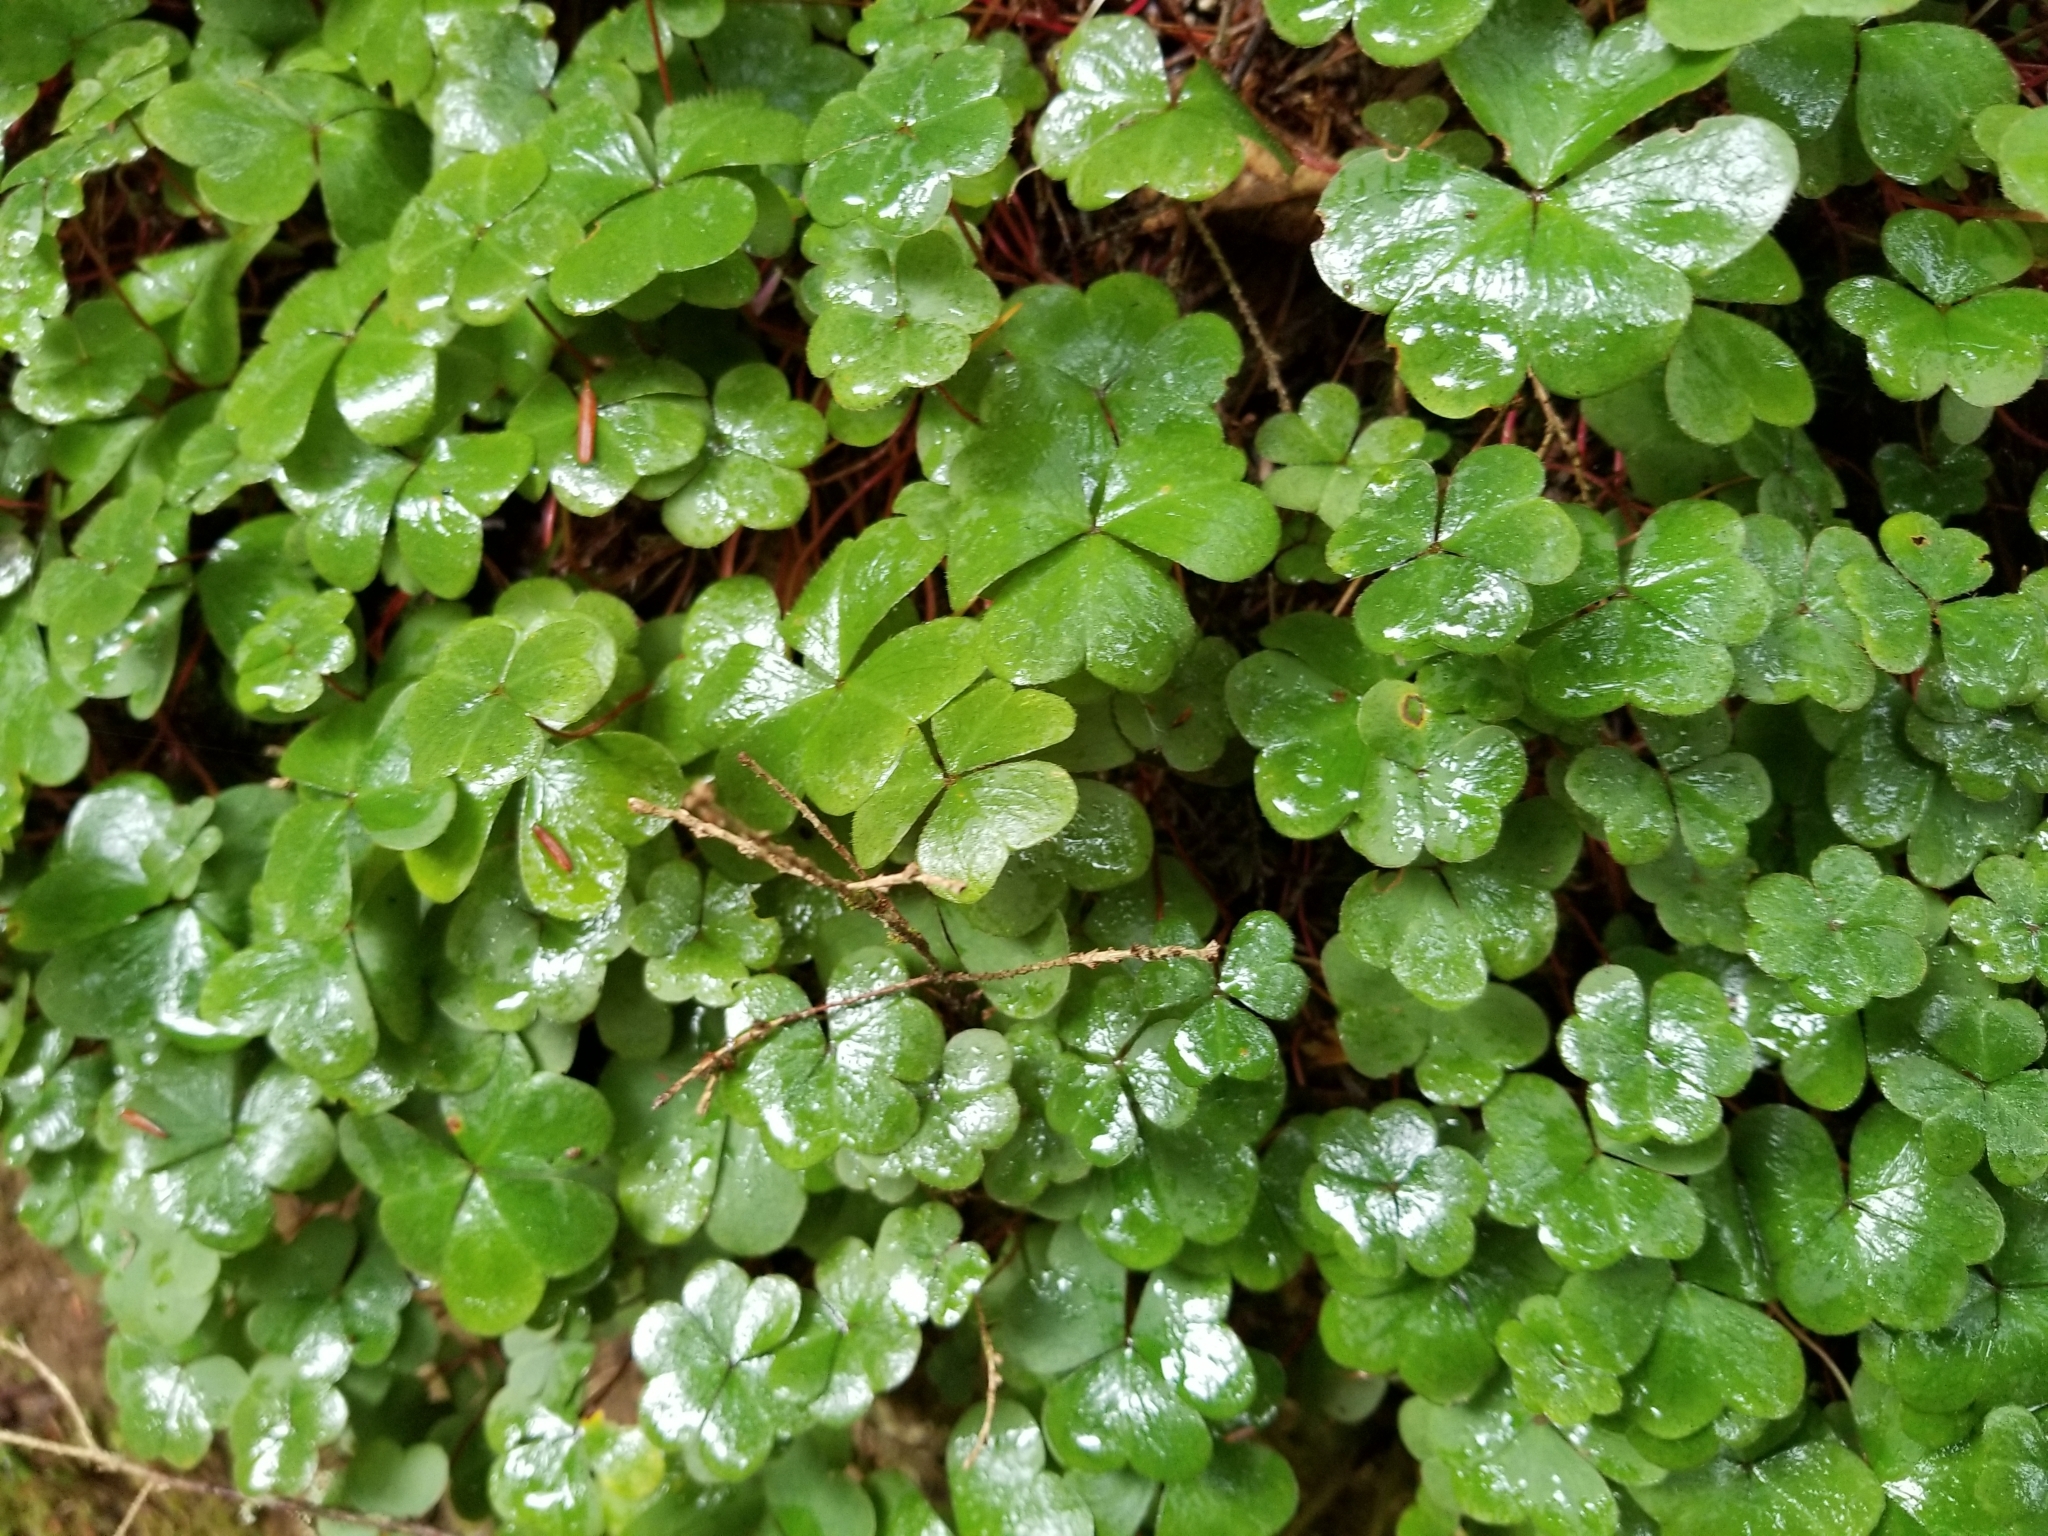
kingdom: Plantae
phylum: Tracheophyta
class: Magnoliopsida
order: Oxalidales
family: Oxalidaceae
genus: Oxalis
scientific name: Oxalis montana
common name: American wood-sorrel
